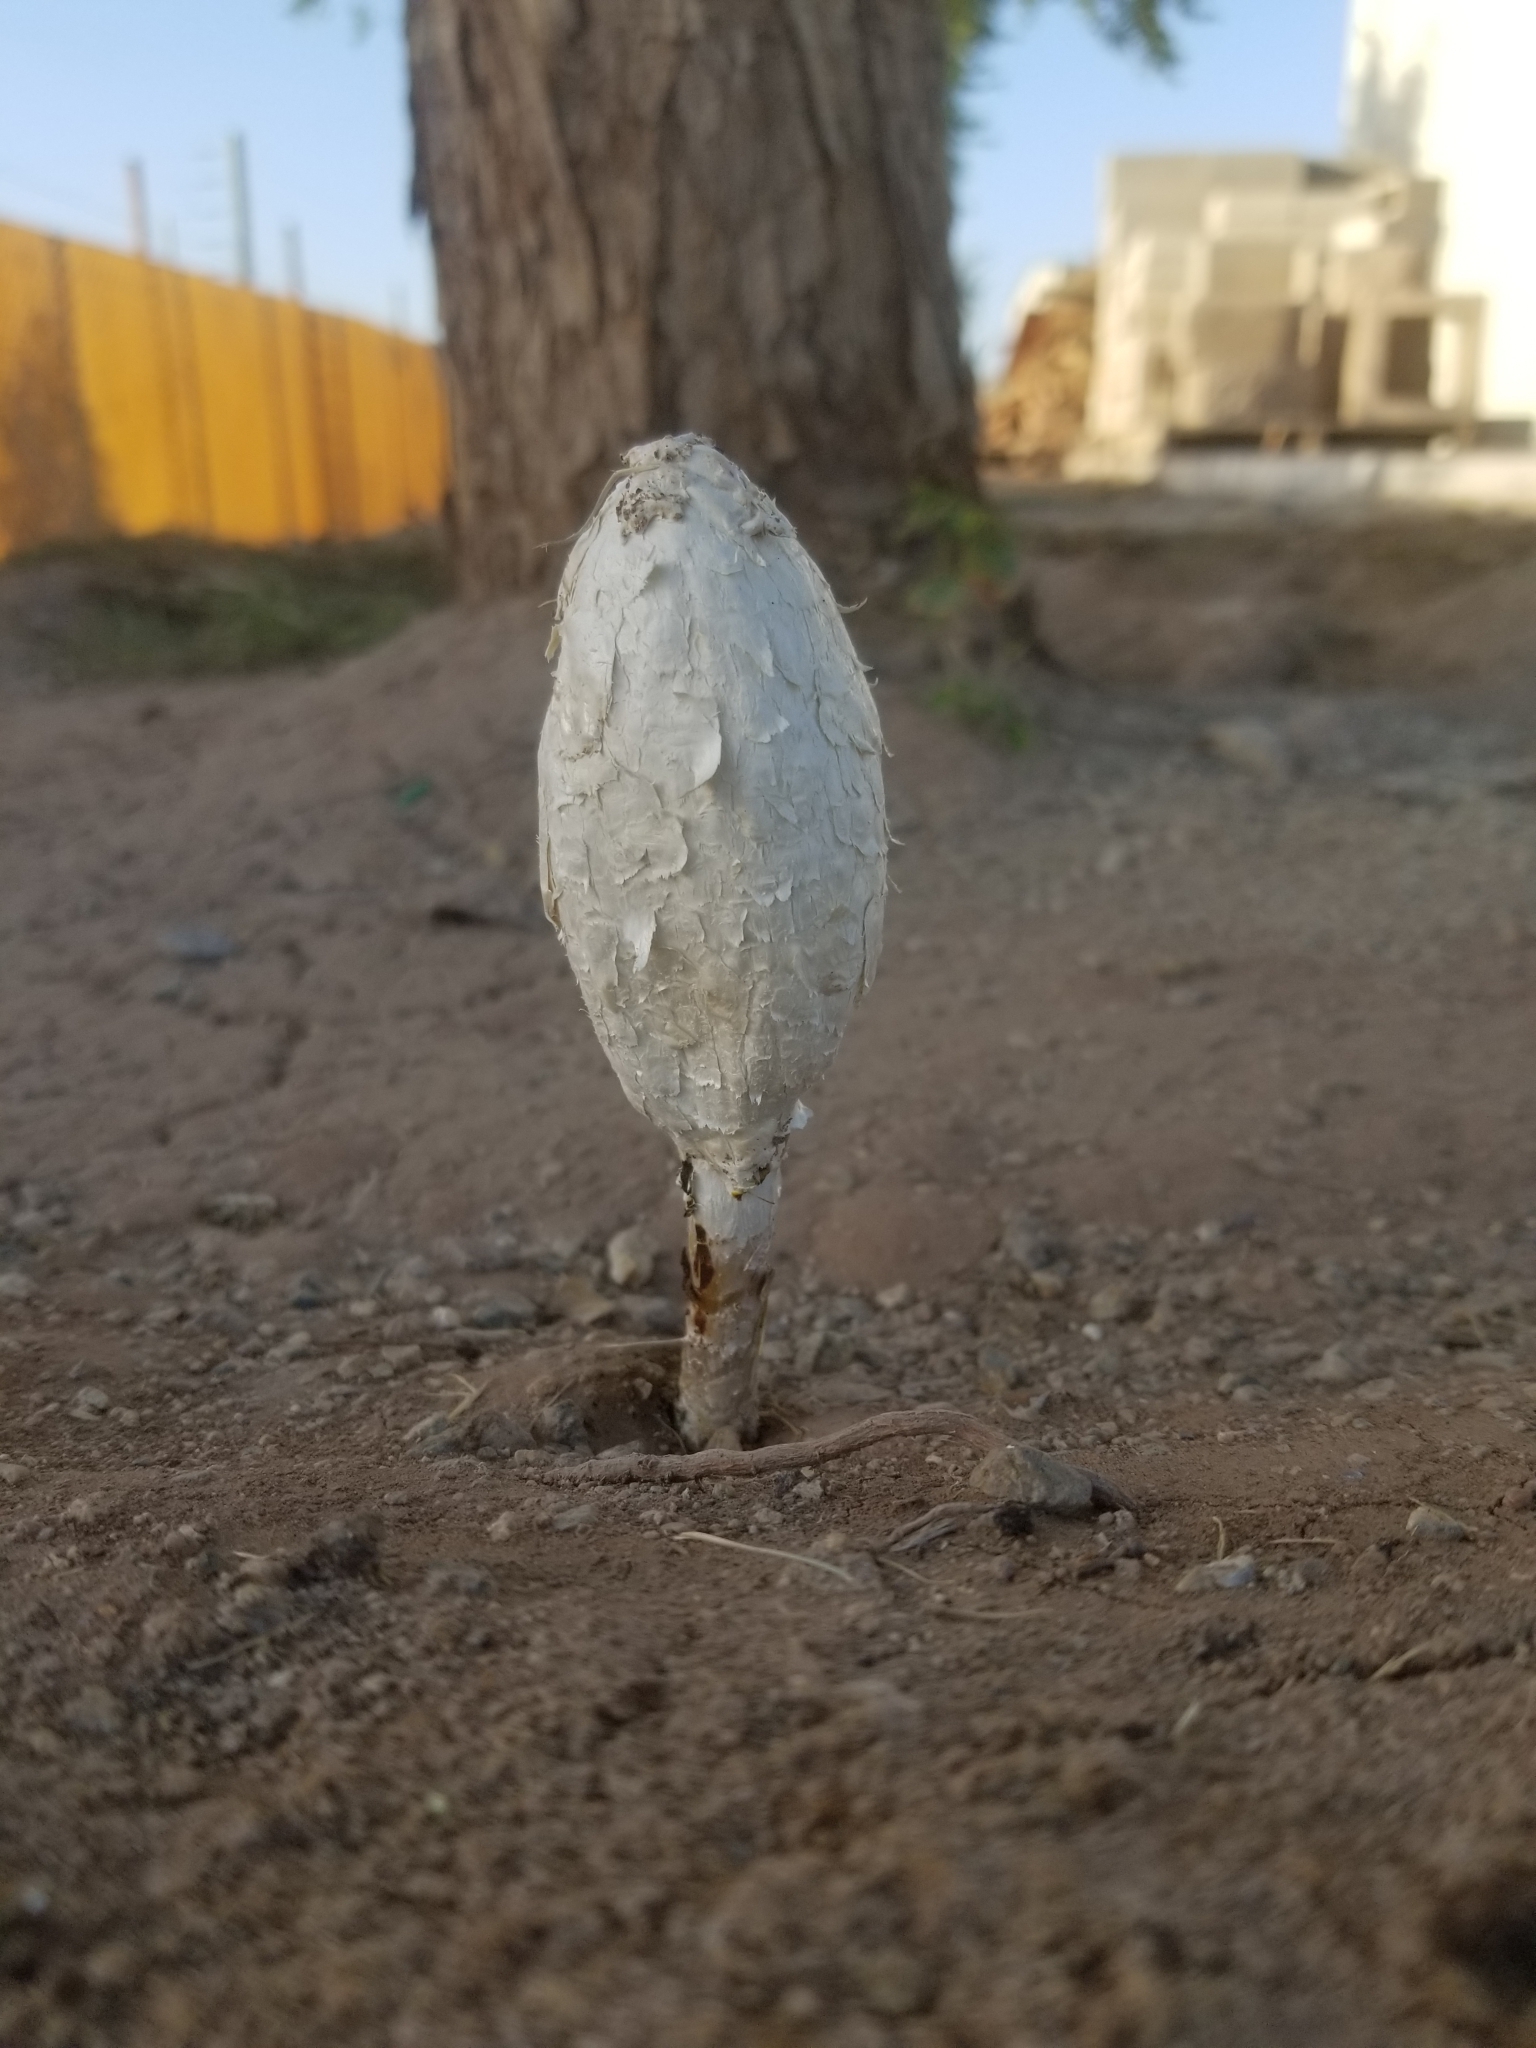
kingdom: Fungi
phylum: Basidiomycota
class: Agaricomycetes
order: Agaricales
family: Agaricaceae
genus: Podaxis
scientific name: Podaxis pistillaris
